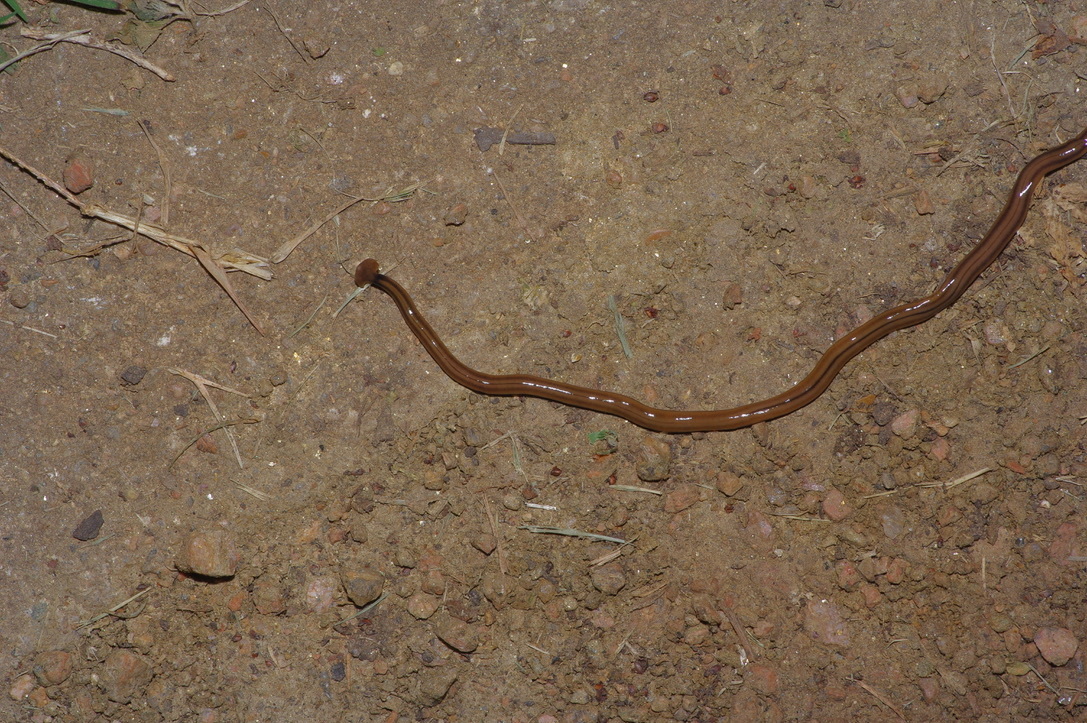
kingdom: Animalia
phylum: Platyhelminthes
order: Tricladida
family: Geoplanidae
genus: Bipalium
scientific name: Bipalium kewense
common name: Hammerhead flatworm
